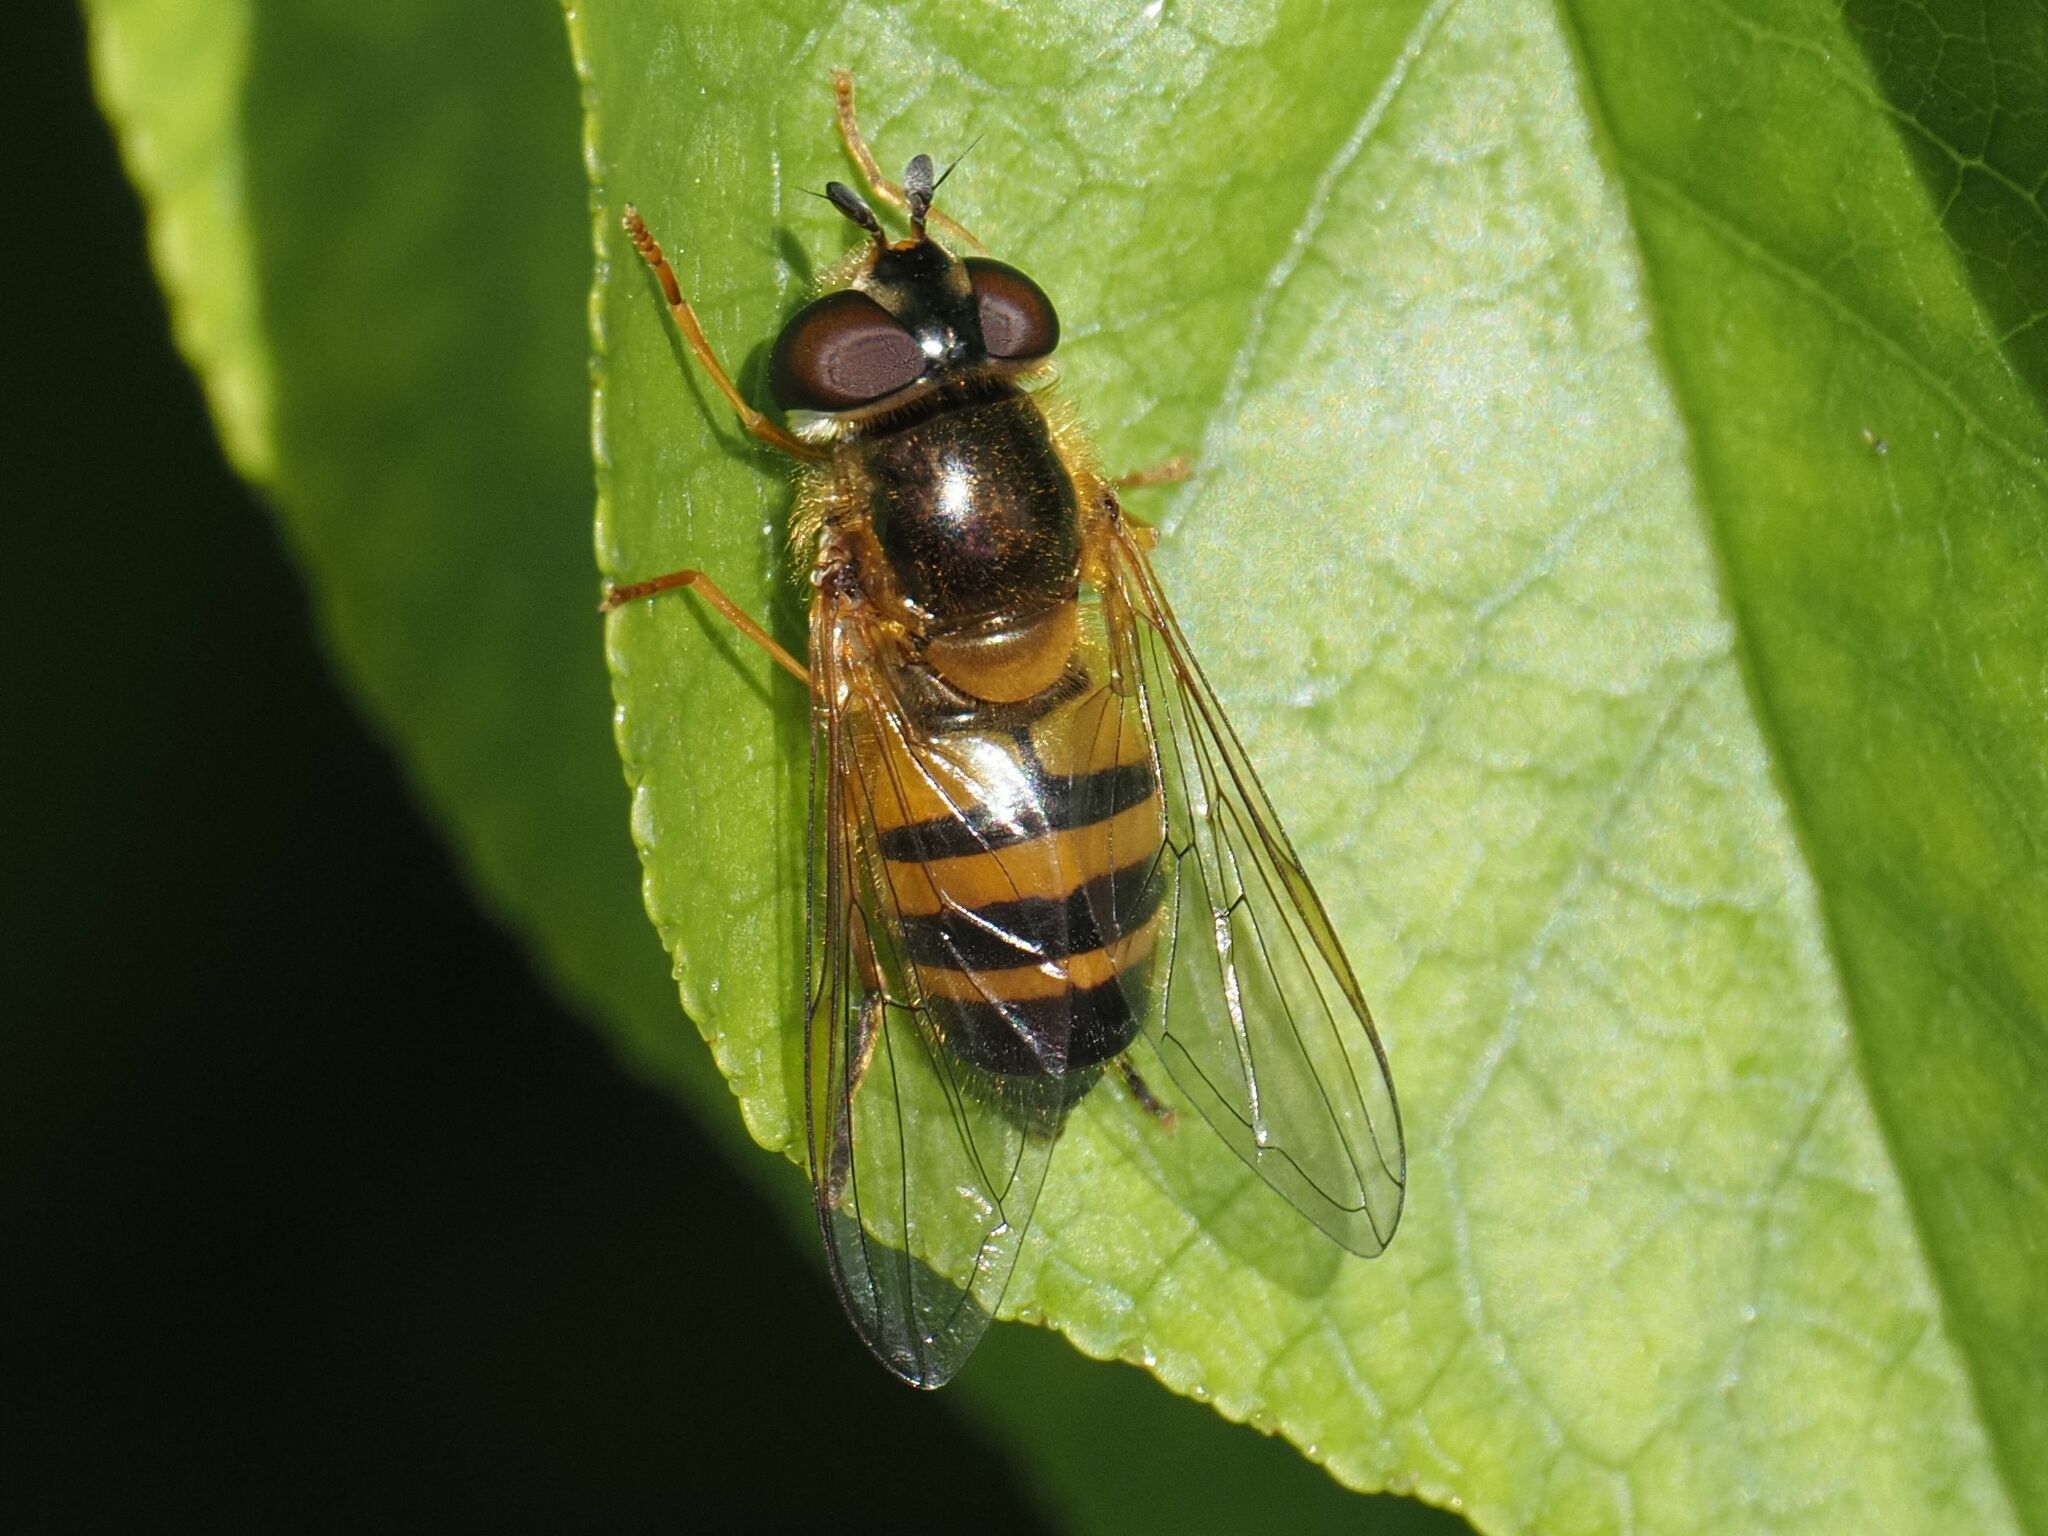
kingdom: Animalia
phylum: Arthropoda
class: Insecta
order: Diptera
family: Syrphidae
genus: Epistrophe
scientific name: Epistrophe eligans
